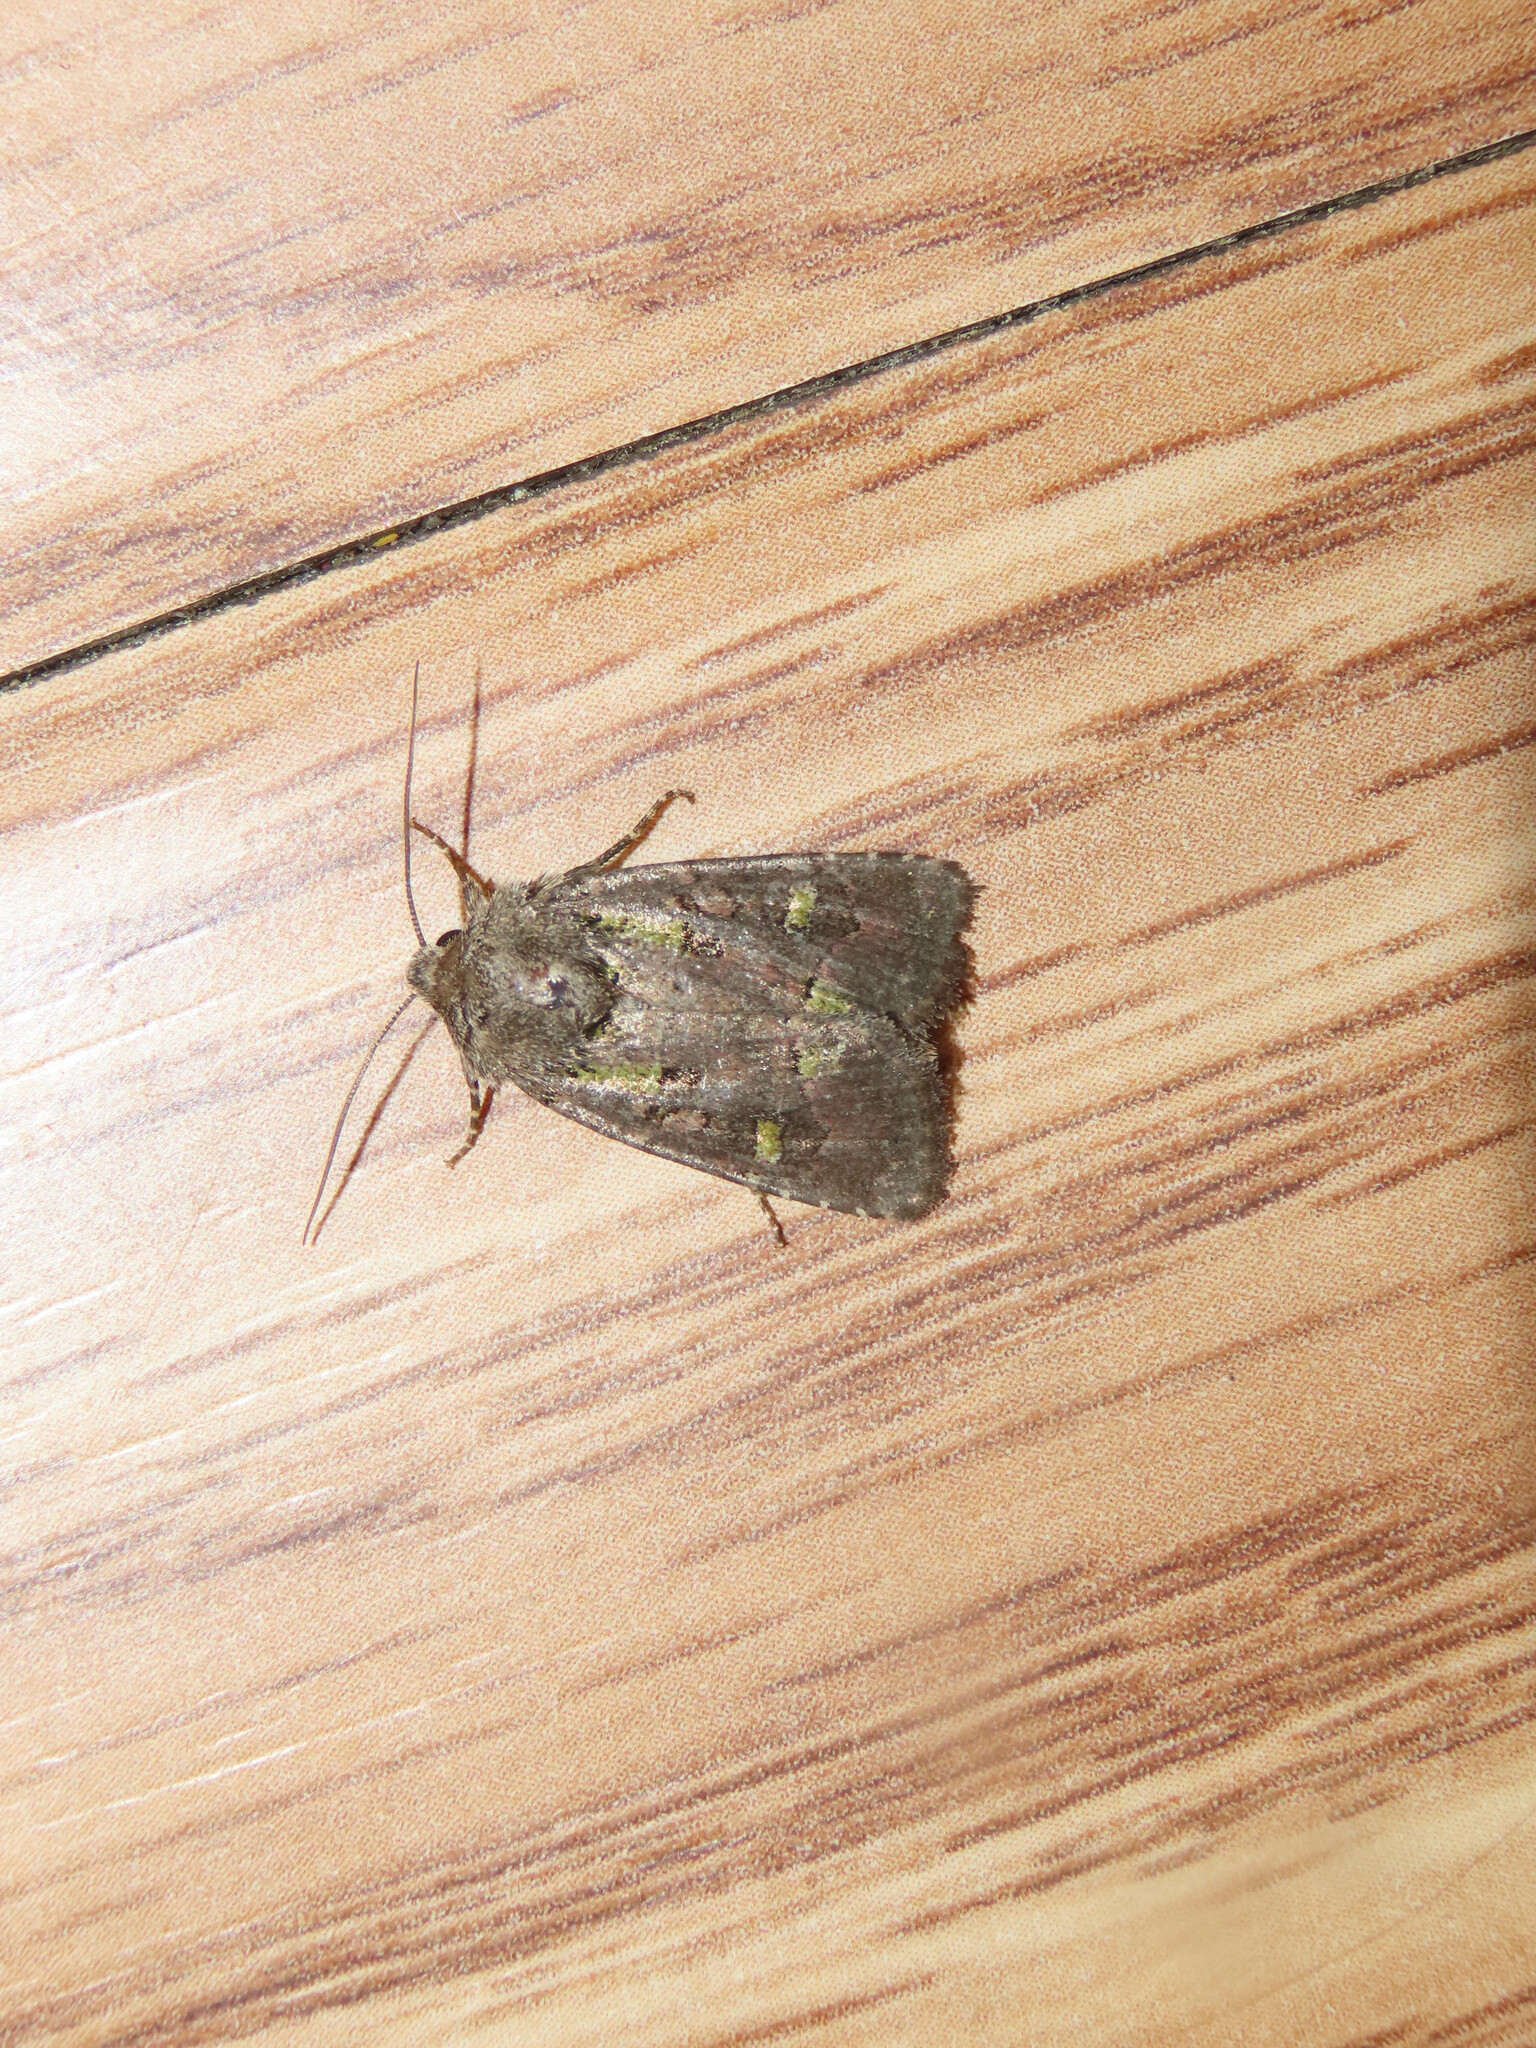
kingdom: Animalia
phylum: Arthropoda
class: Insecta
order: Lepidoptera
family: Noctuidae
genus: Lacinipolia
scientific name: Lacinipolia renigera
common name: Kidney-spotted minor
